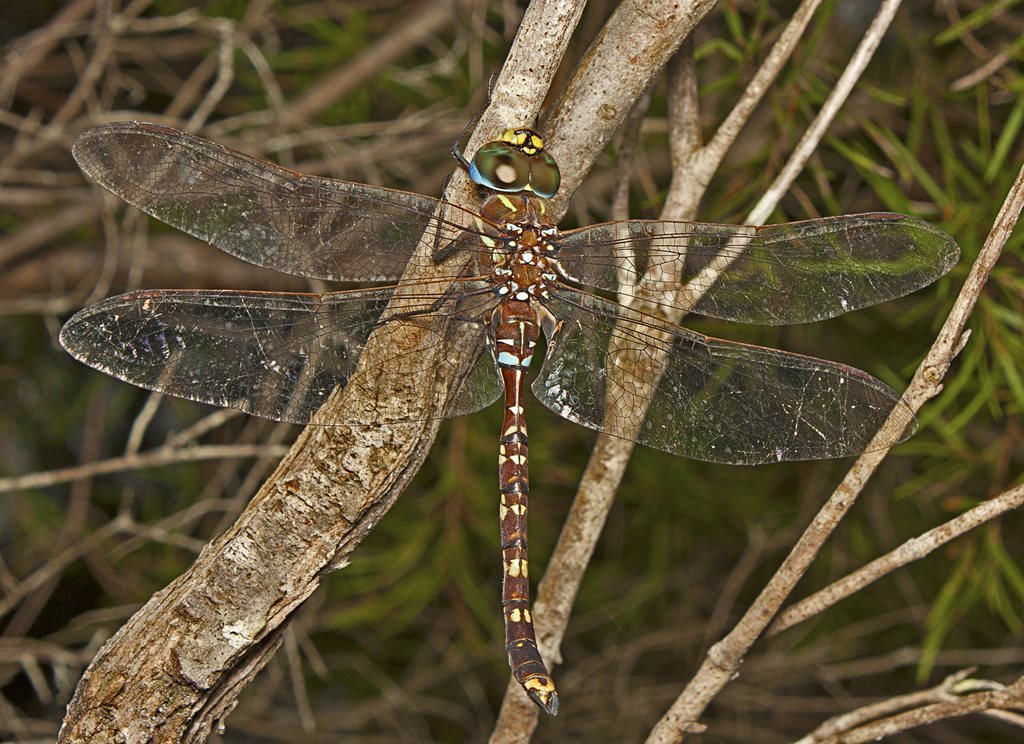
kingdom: Animalia
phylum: Arthropoda
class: Insecta
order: Odonata
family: Aeshnidae
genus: Aeshna
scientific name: Aeshna brevistyla
